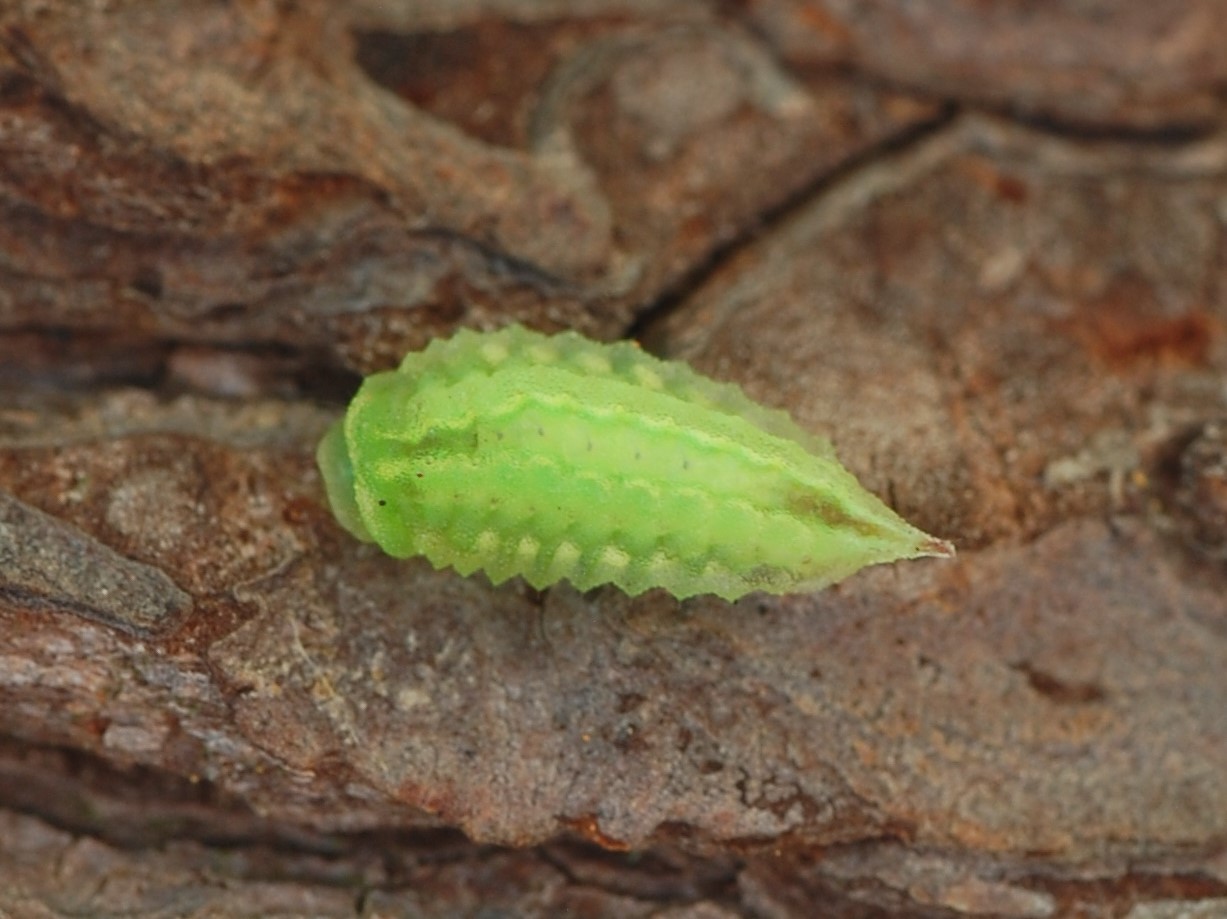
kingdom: Animalia
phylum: Arthropoda
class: Insecta
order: Lepidoptera
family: Limacodidae
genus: Packardia
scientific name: Packardia elegans
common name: Elegant tailed slug moth
